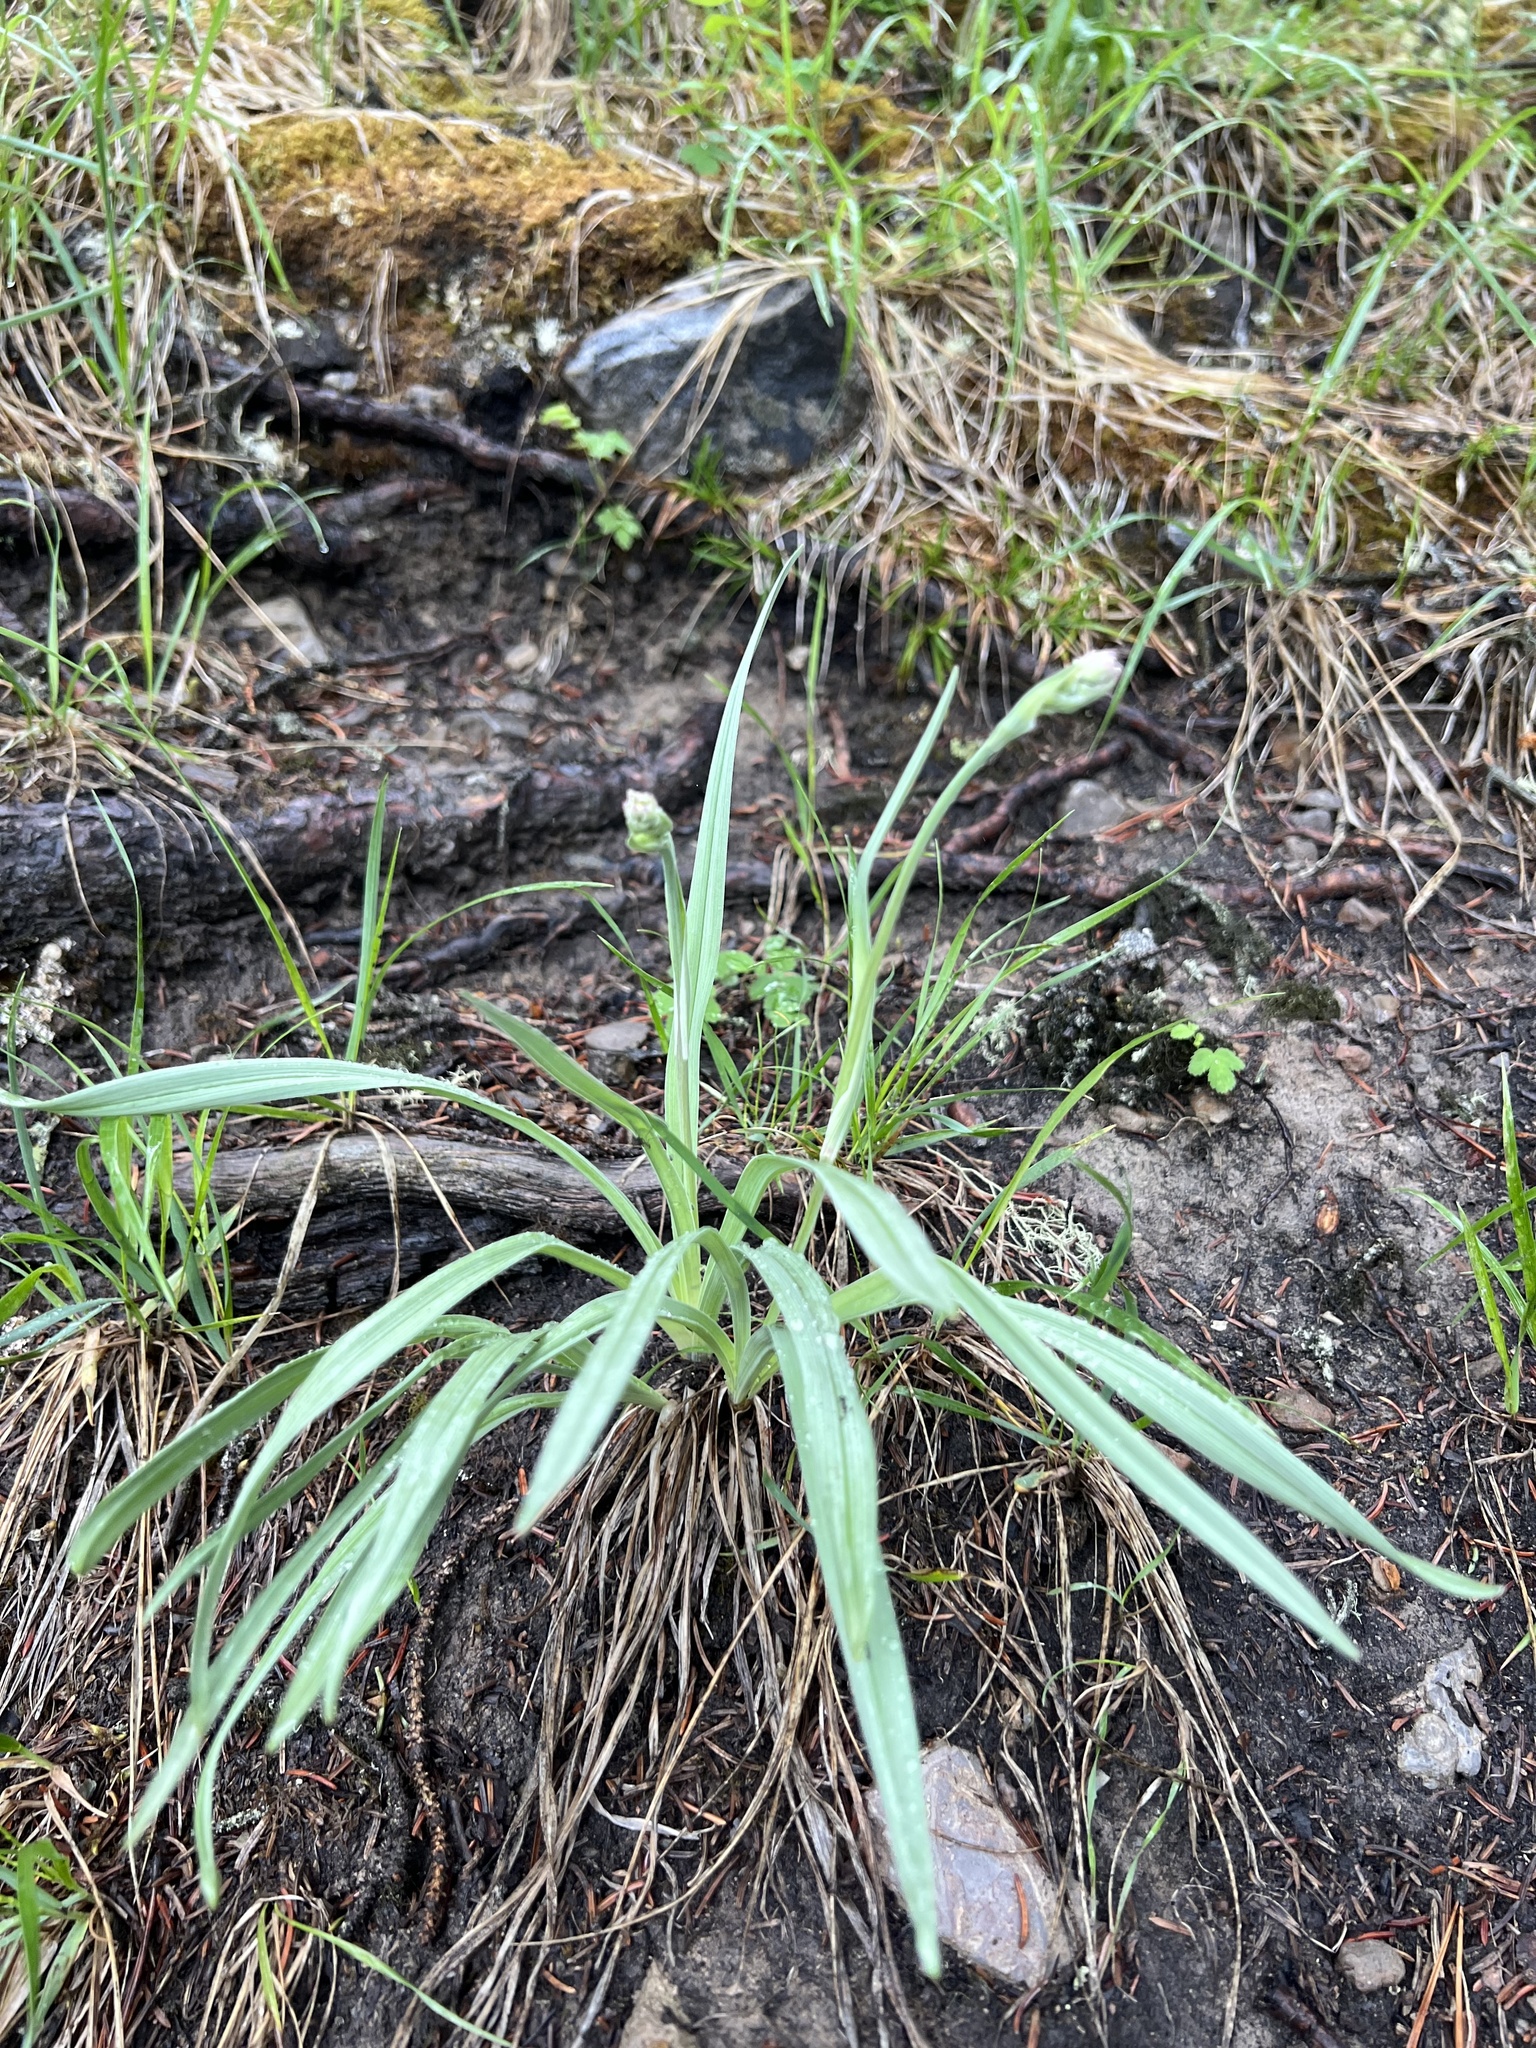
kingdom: Plantae
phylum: Tracheophyta
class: Liliopsida
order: Liliales
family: Melanthiaceae
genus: Anticlea
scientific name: Anticlea elegans
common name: Mountain death camas
